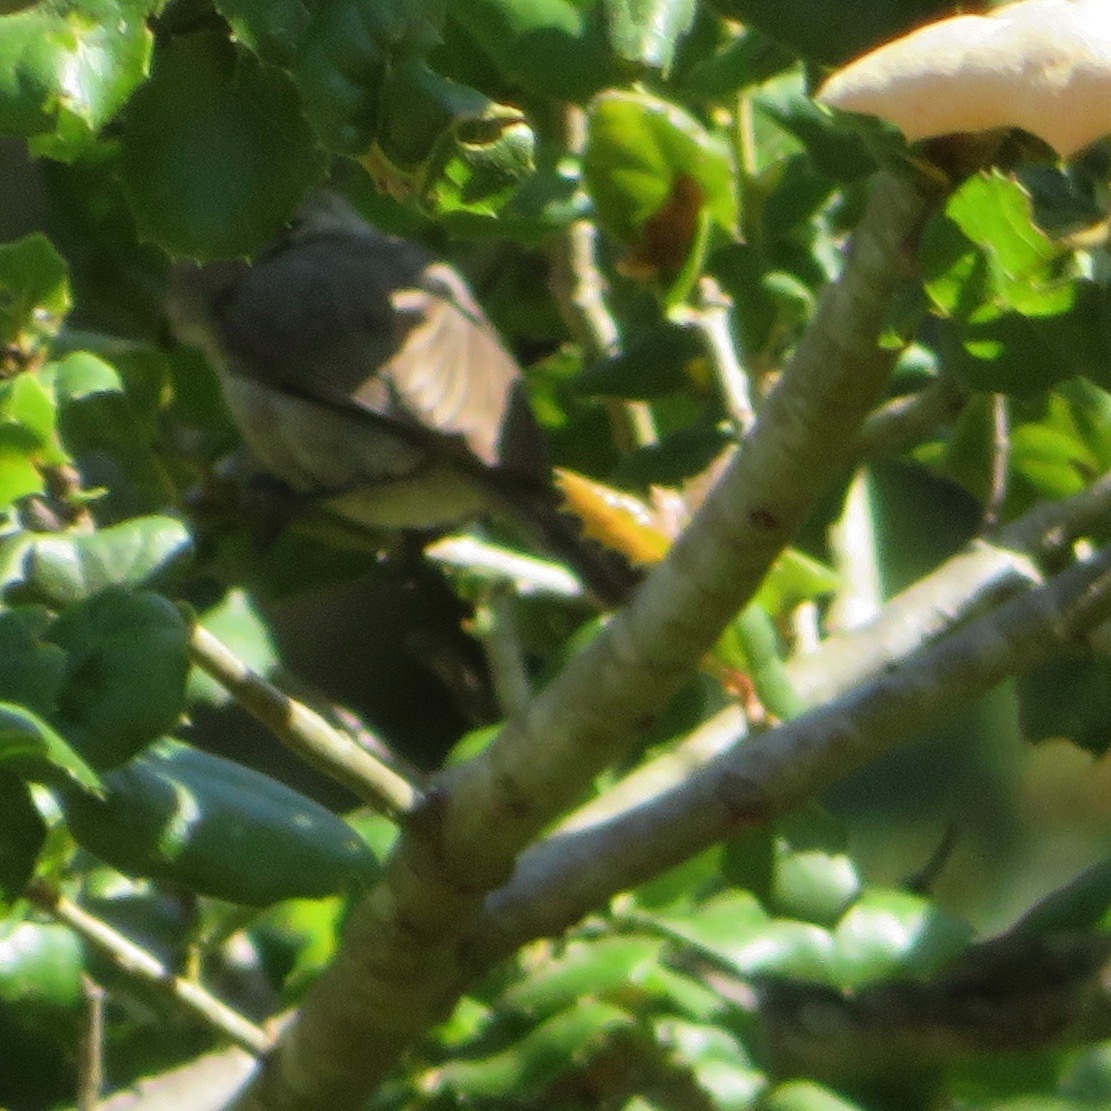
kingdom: Animalia
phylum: Chordata
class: Aves
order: Passeriformes
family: Aegithalidae
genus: Psaltriparus
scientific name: Psaltriparus minimus
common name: American bushtit
